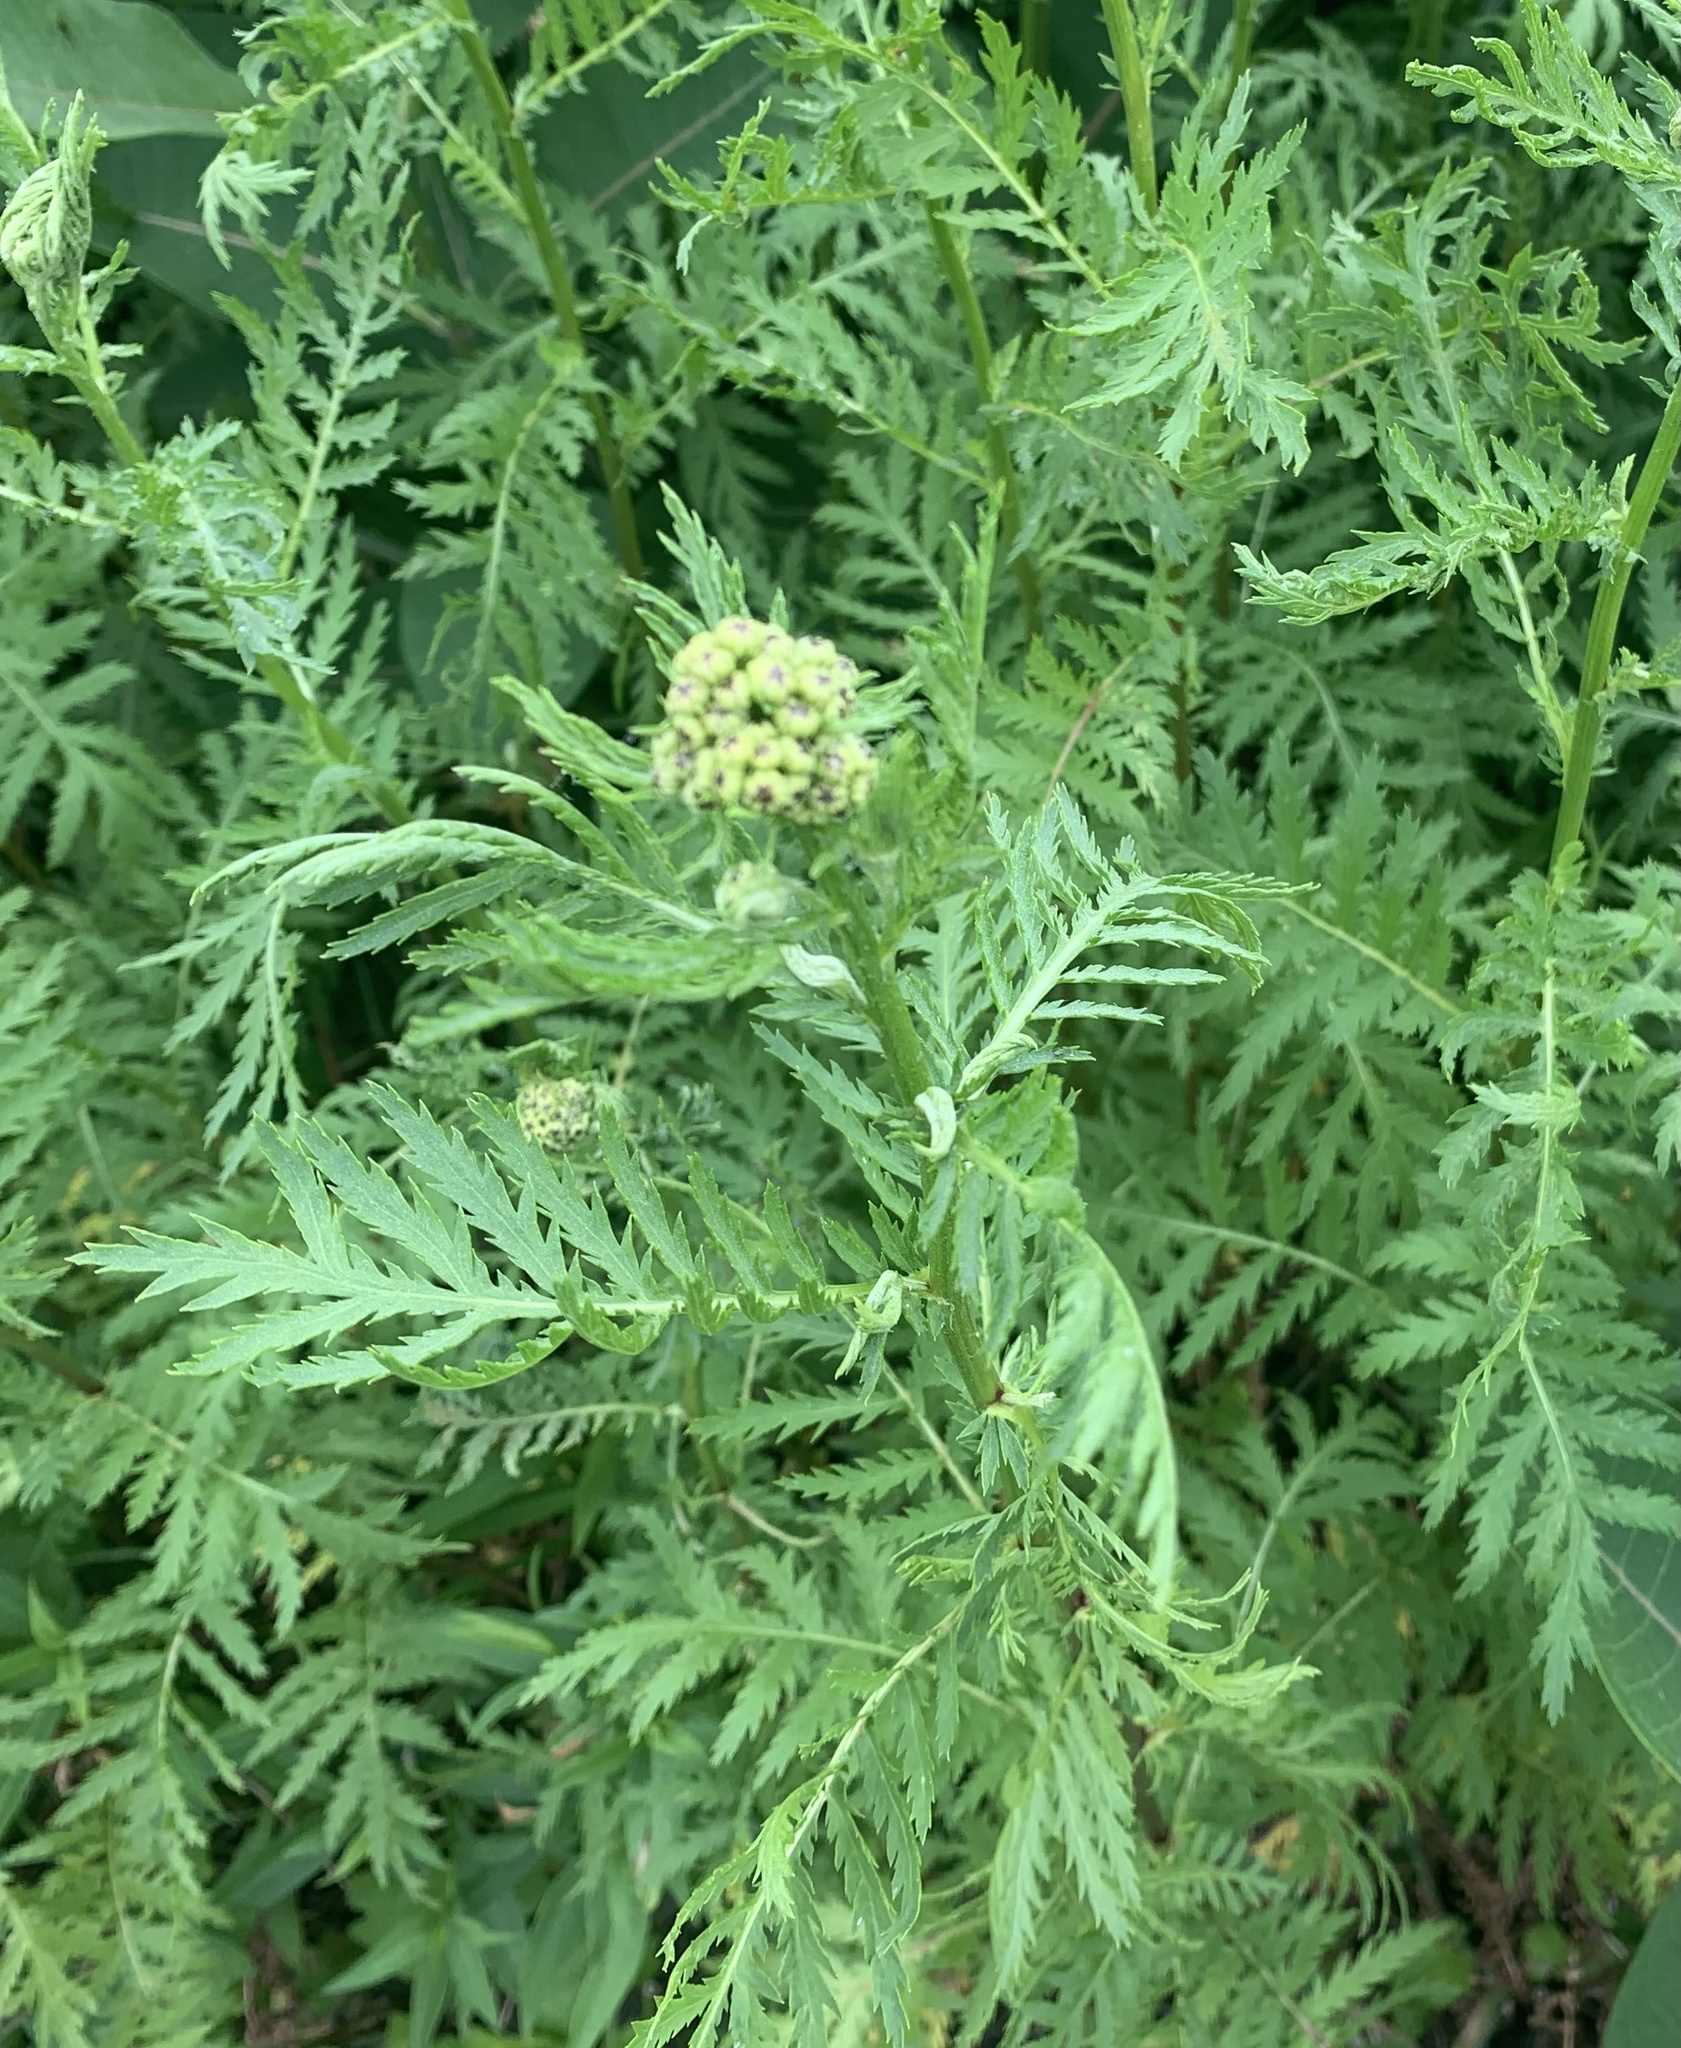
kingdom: Plantae
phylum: Tracheophyta
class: Magnoliopsida
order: Asterales
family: Asteraceae
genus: Tanacetum
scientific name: Tanacetum vulgare
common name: Common tansy
